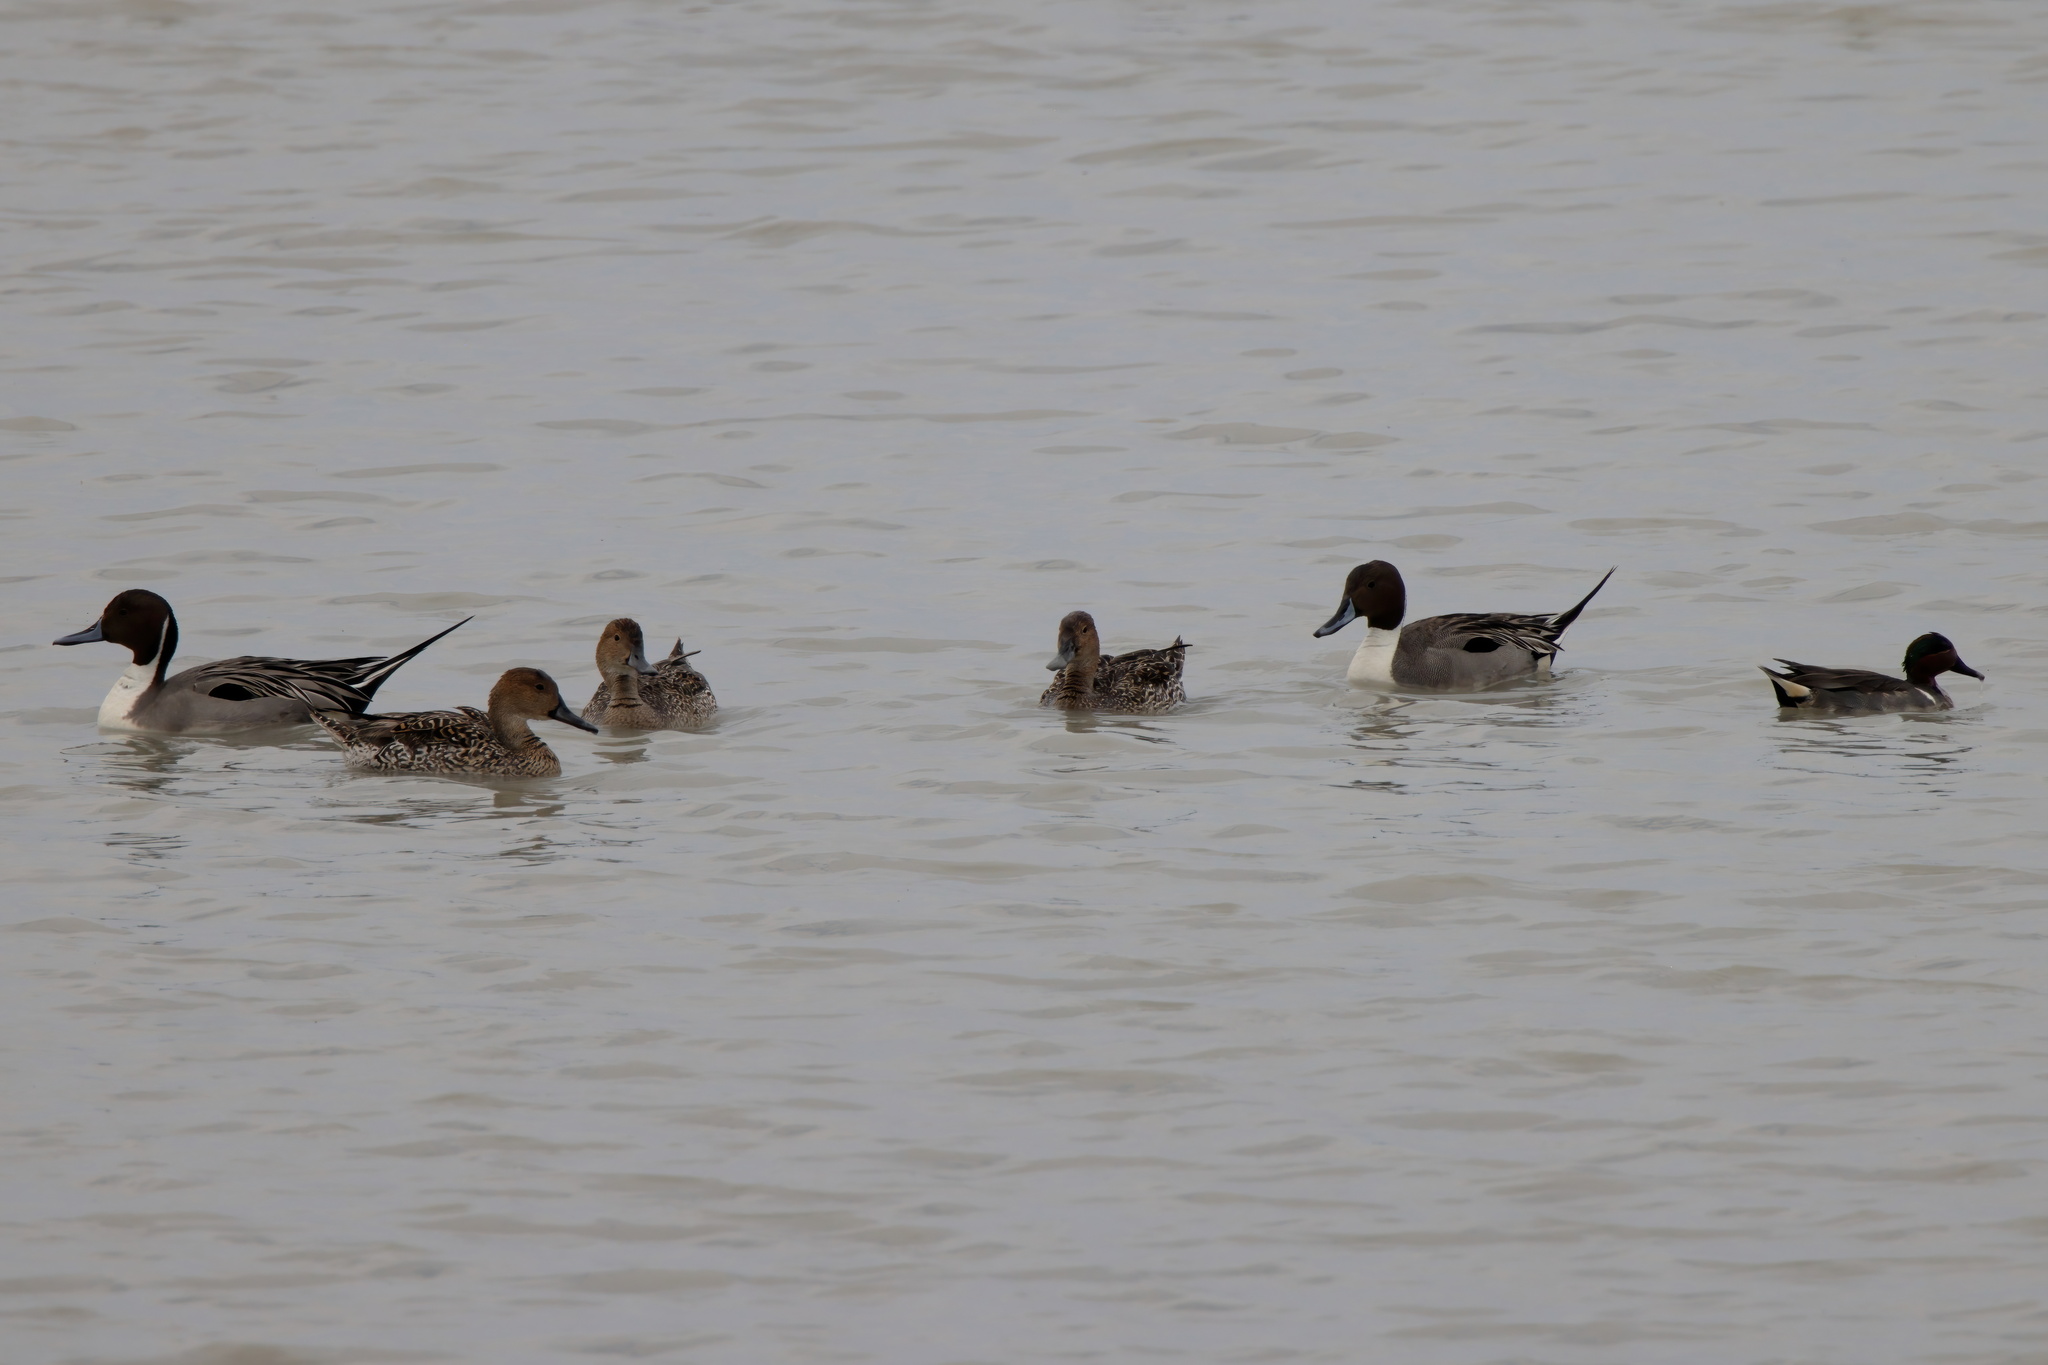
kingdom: Animalia
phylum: Chordata
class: Aves
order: Anseriformes
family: Anatidae
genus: Anas
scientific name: Anas acuta
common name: Northern pintail
